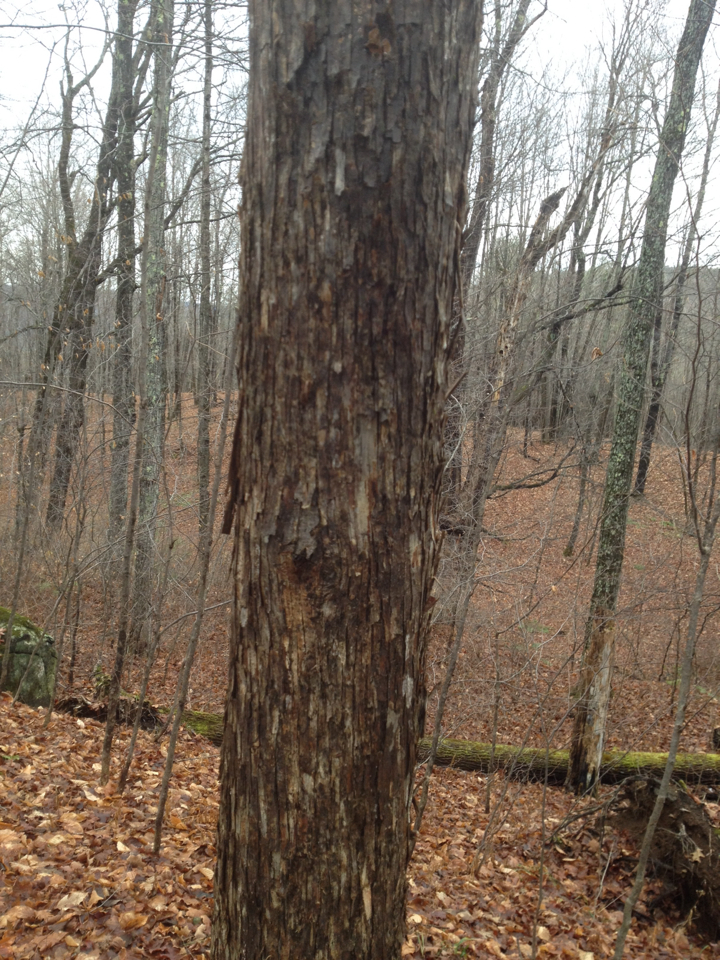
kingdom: Plantae
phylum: Tracheophyta
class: Magnoliopsida
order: Fagales
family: Betulaceae
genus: Ostrya
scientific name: Ostrya virginiana
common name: Ironwood
